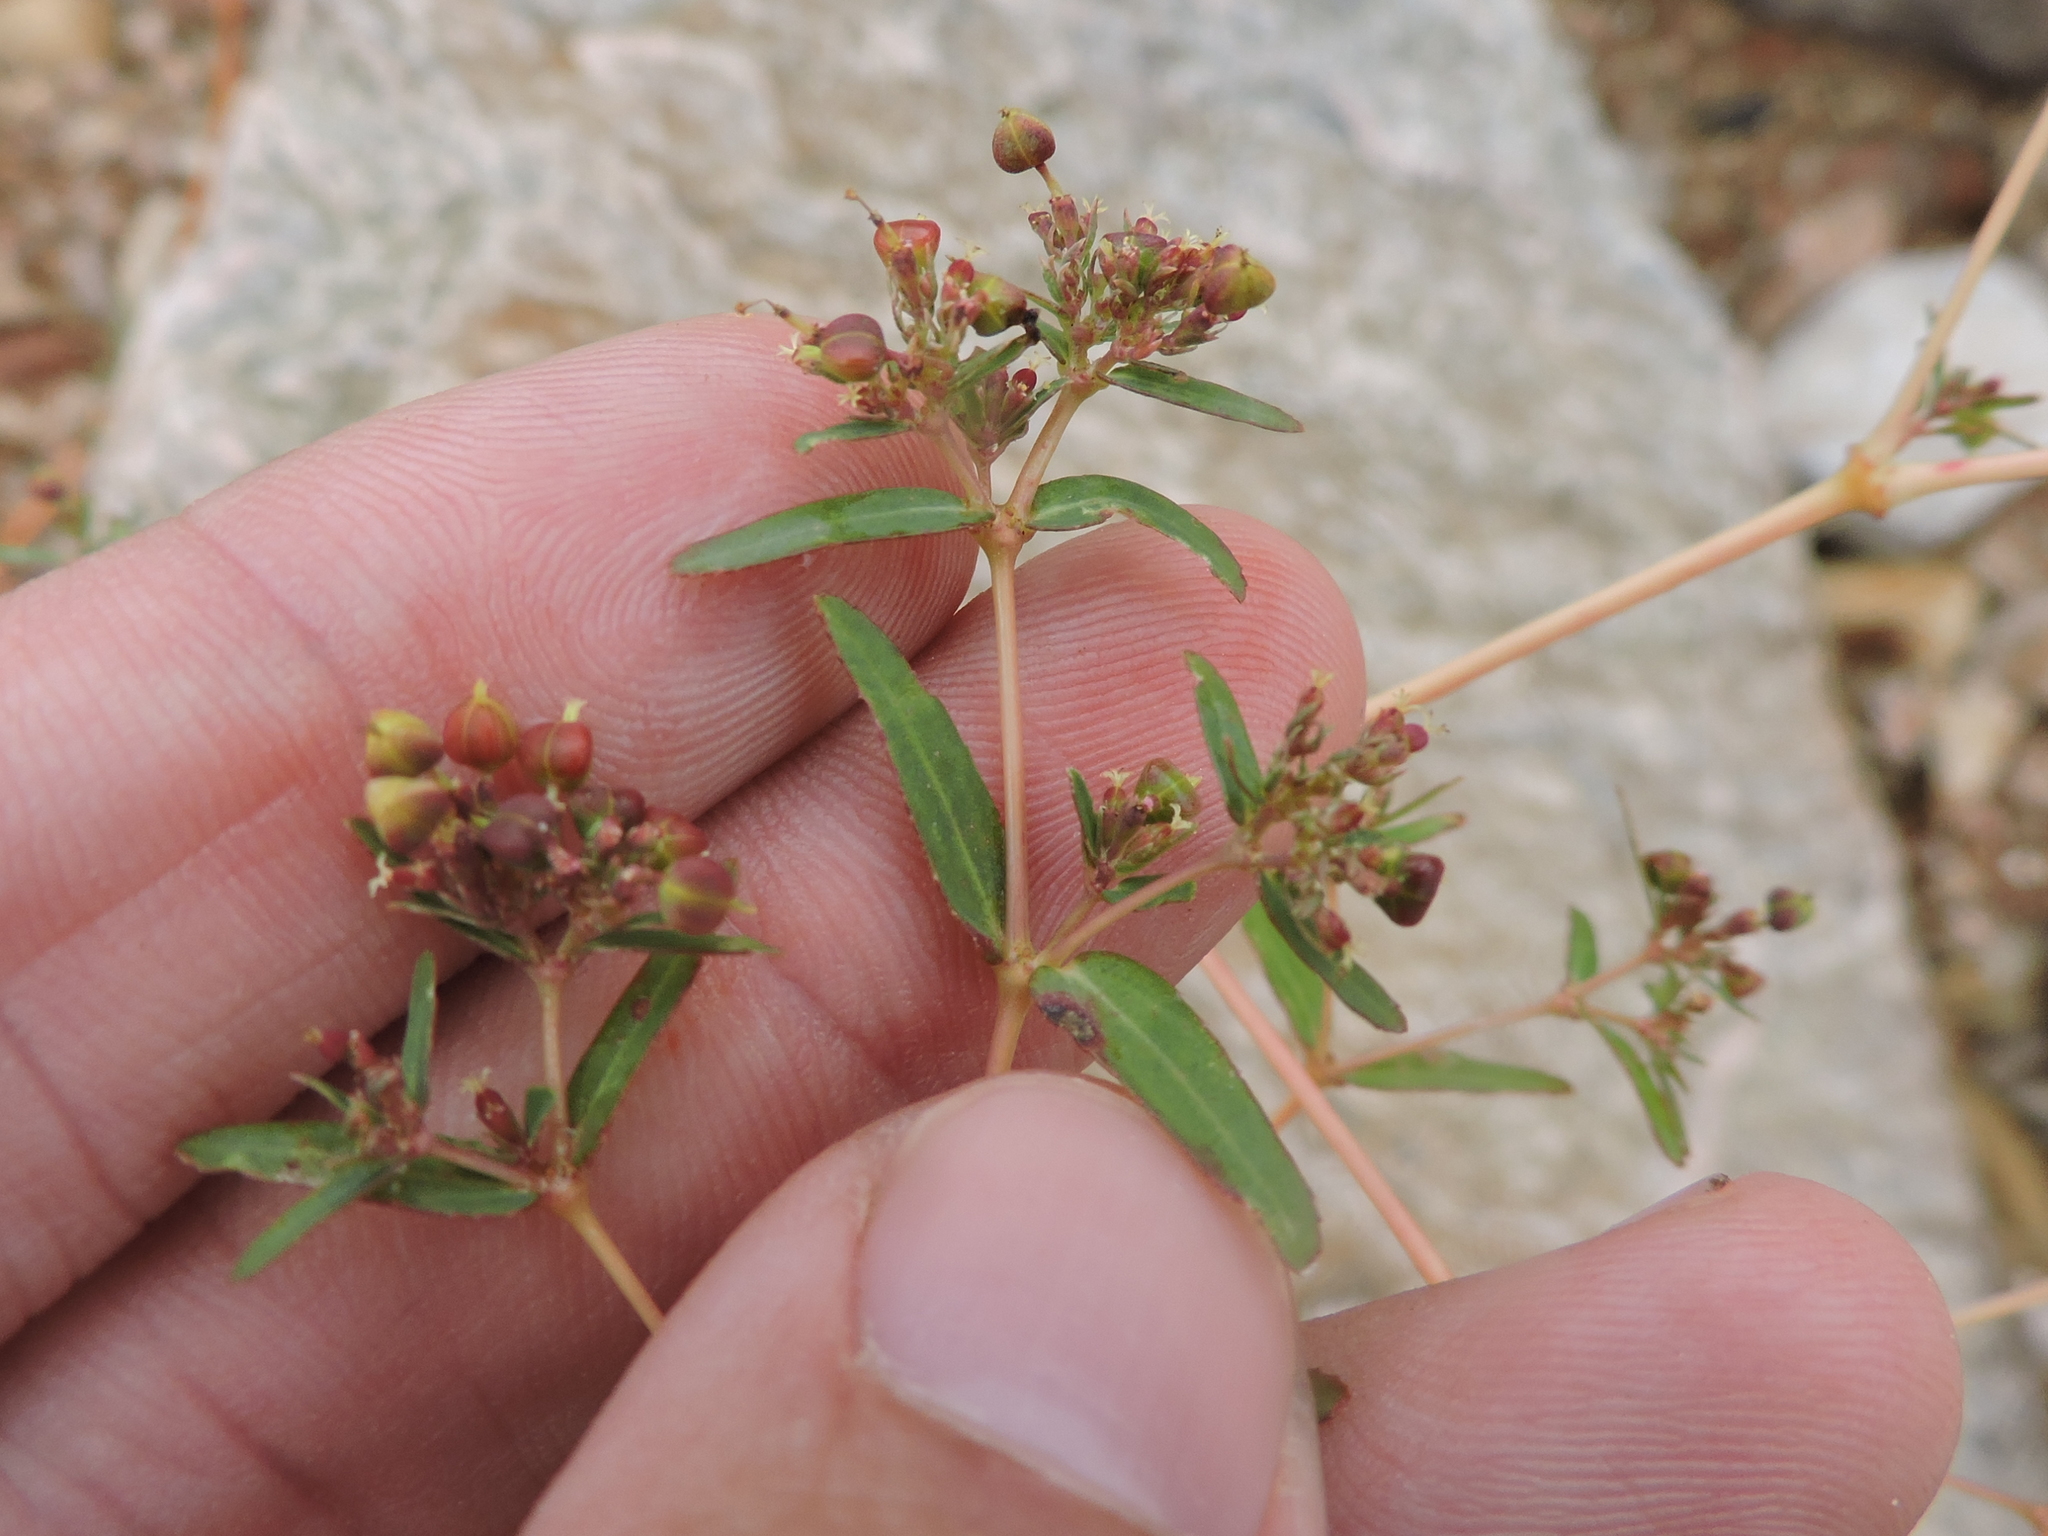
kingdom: Plantae
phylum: Tracheophyta
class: Magnoliopsida
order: Malpighiales
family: Euphorbiaceae
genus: Euphorbia
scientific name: Euphorbia hyssopifolia
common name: Hyssopleaf sandmat
